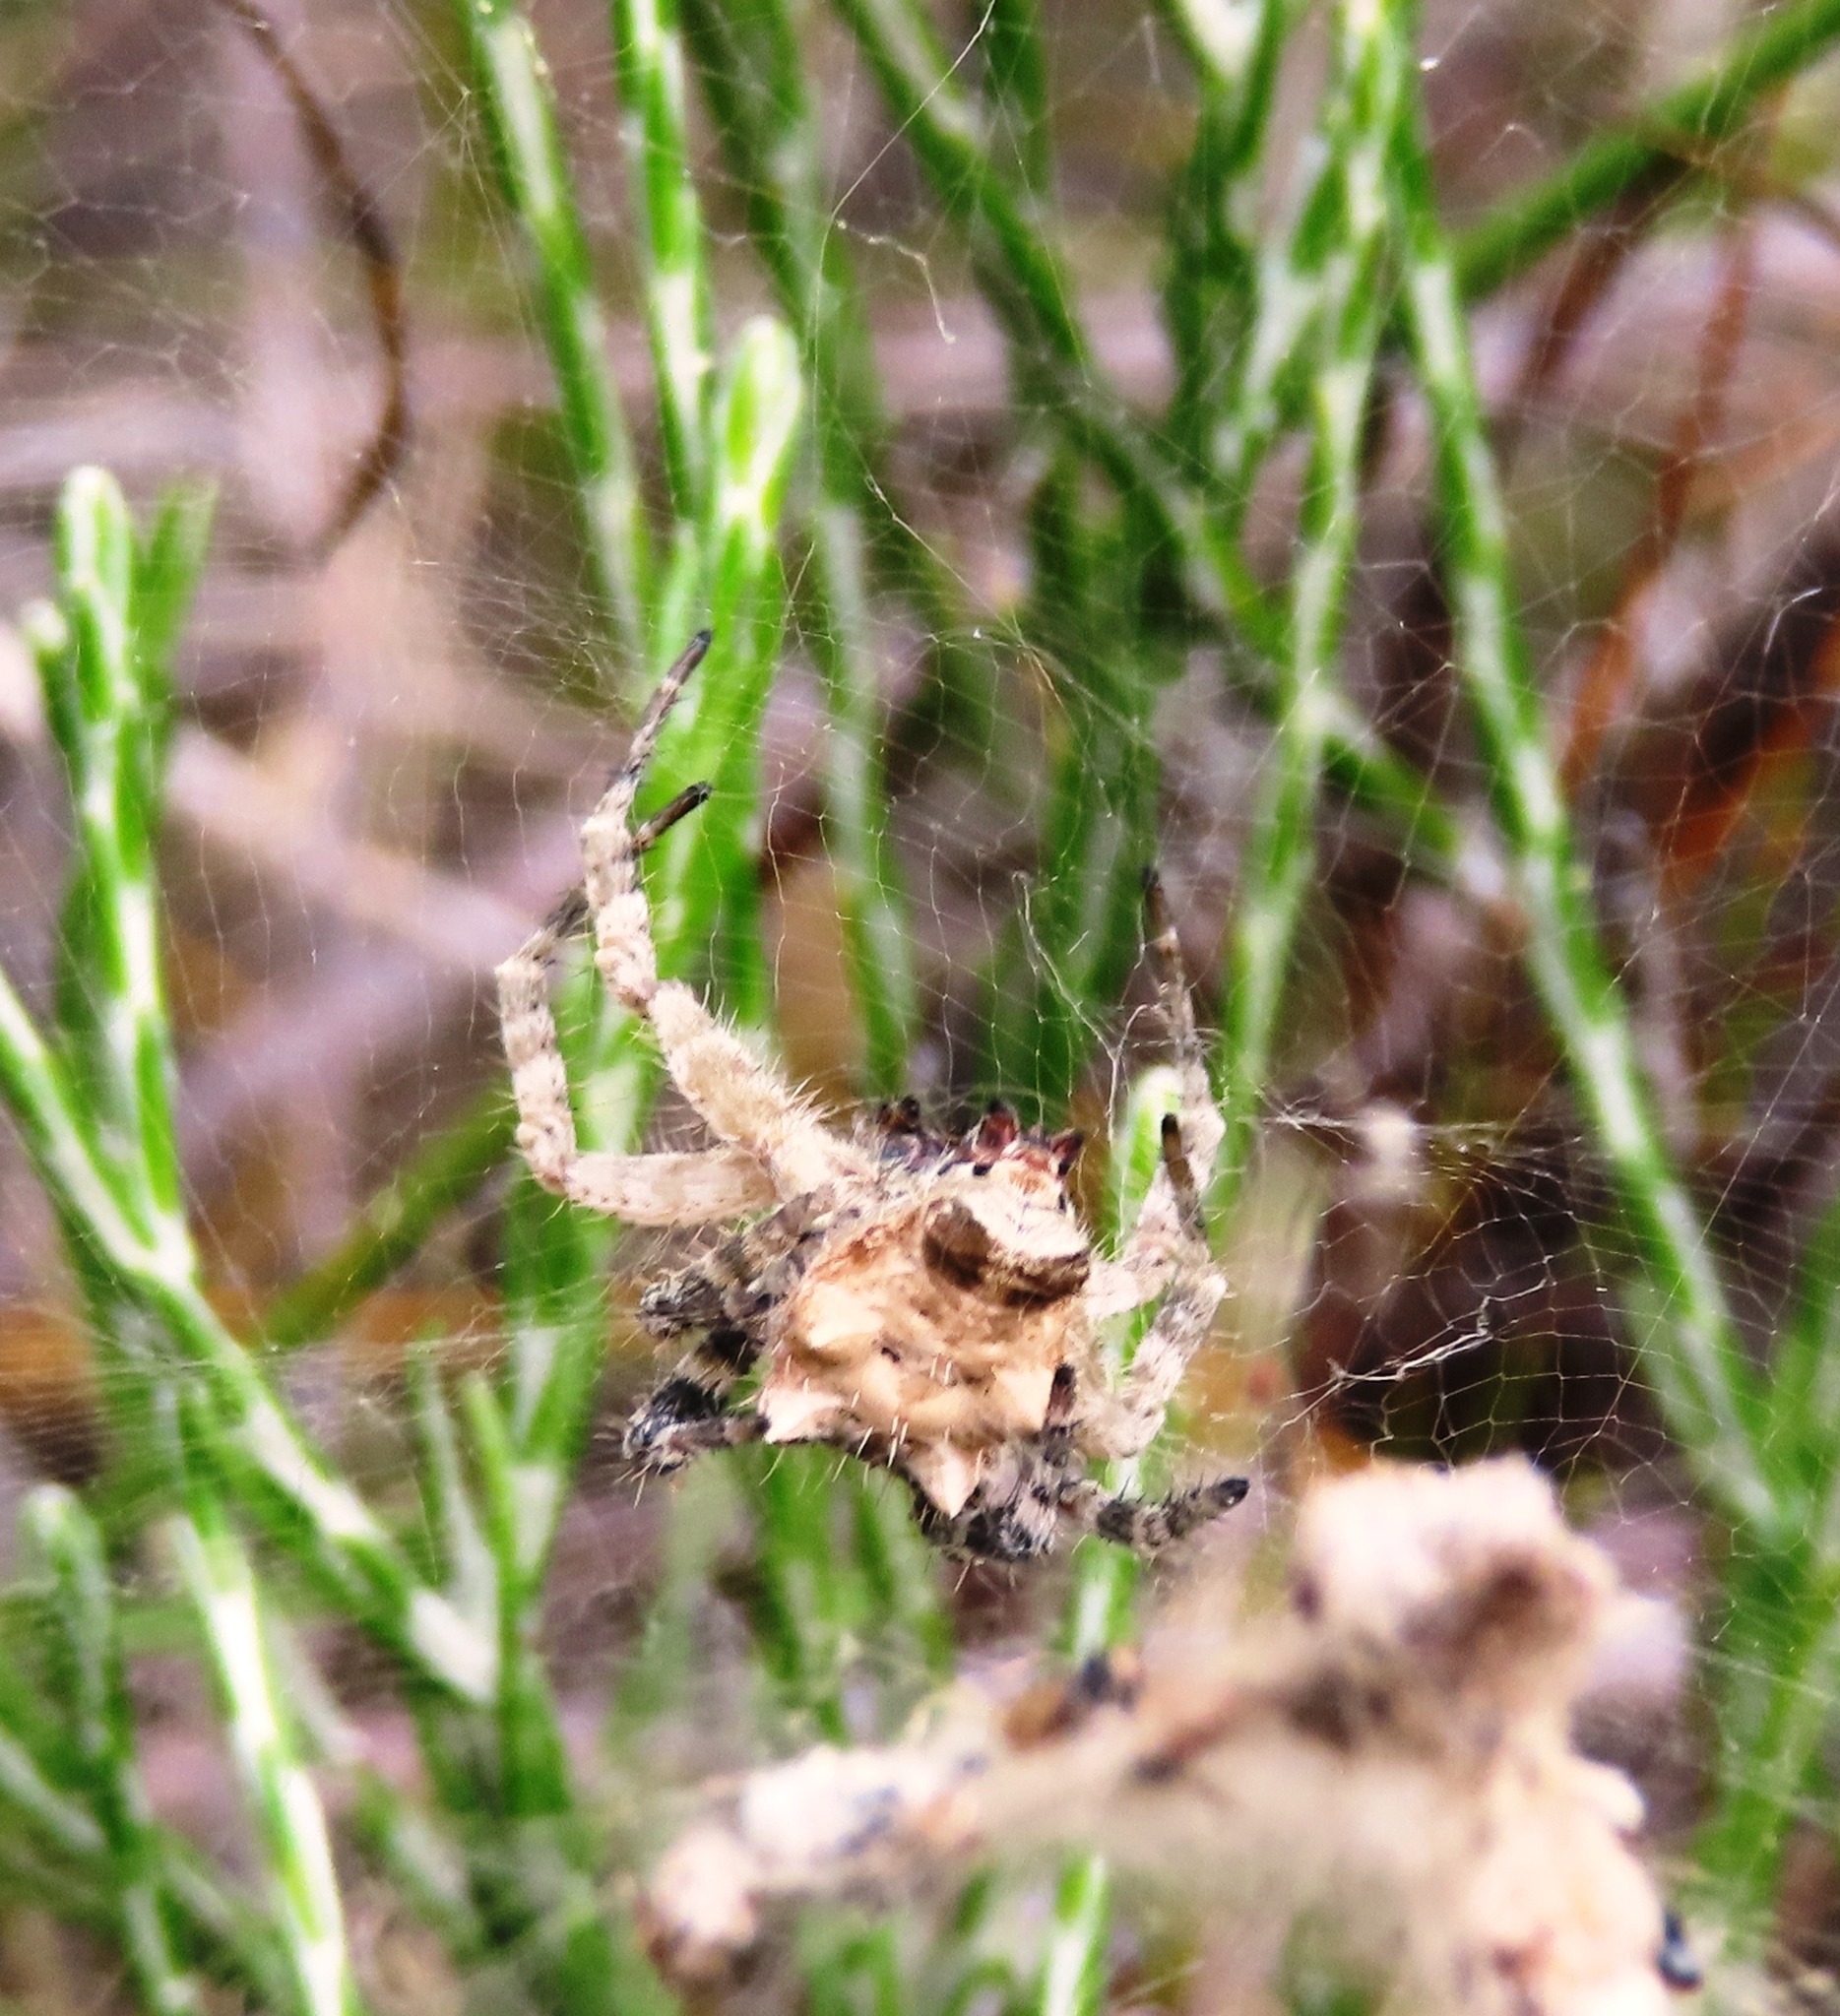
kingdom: Animalia
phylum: Arthropoda
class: Arachnida
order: Araneae
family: Araneidae
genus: Cyrtophora
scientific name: Cyrtophora citricola
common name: Orb weavers
